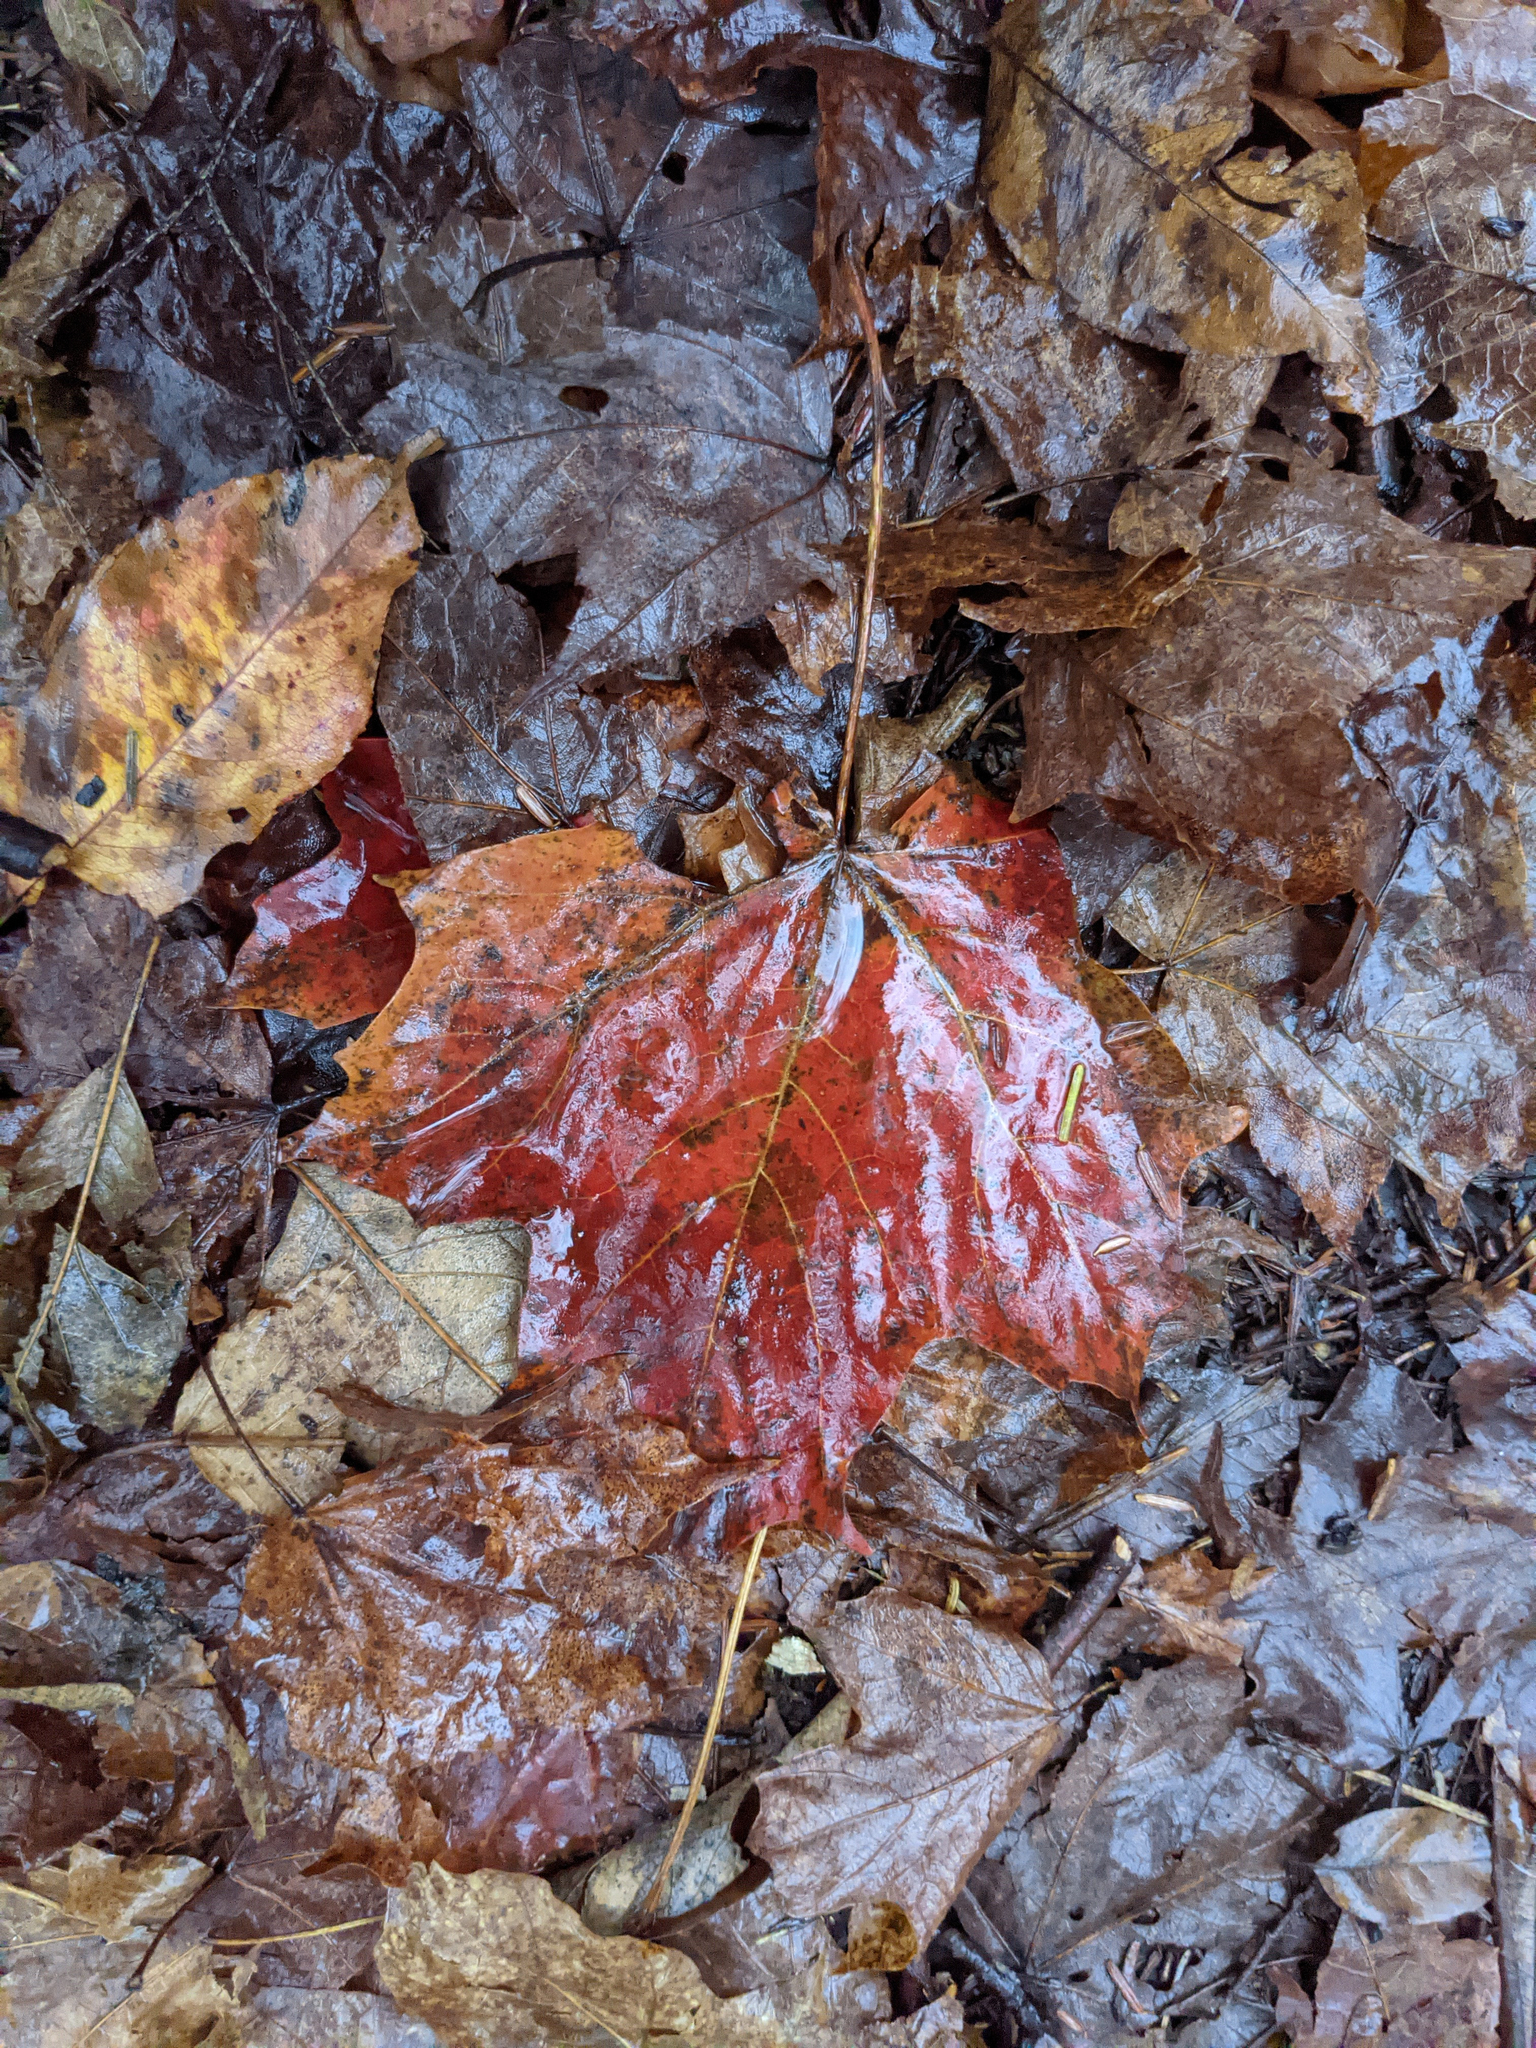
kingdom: Plantae
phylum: Tracheophyta
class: Magnoliopsida
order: Sapindales
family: Sapindaceae
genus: Acer
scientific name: Acer saccharum
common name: Sugar maple
